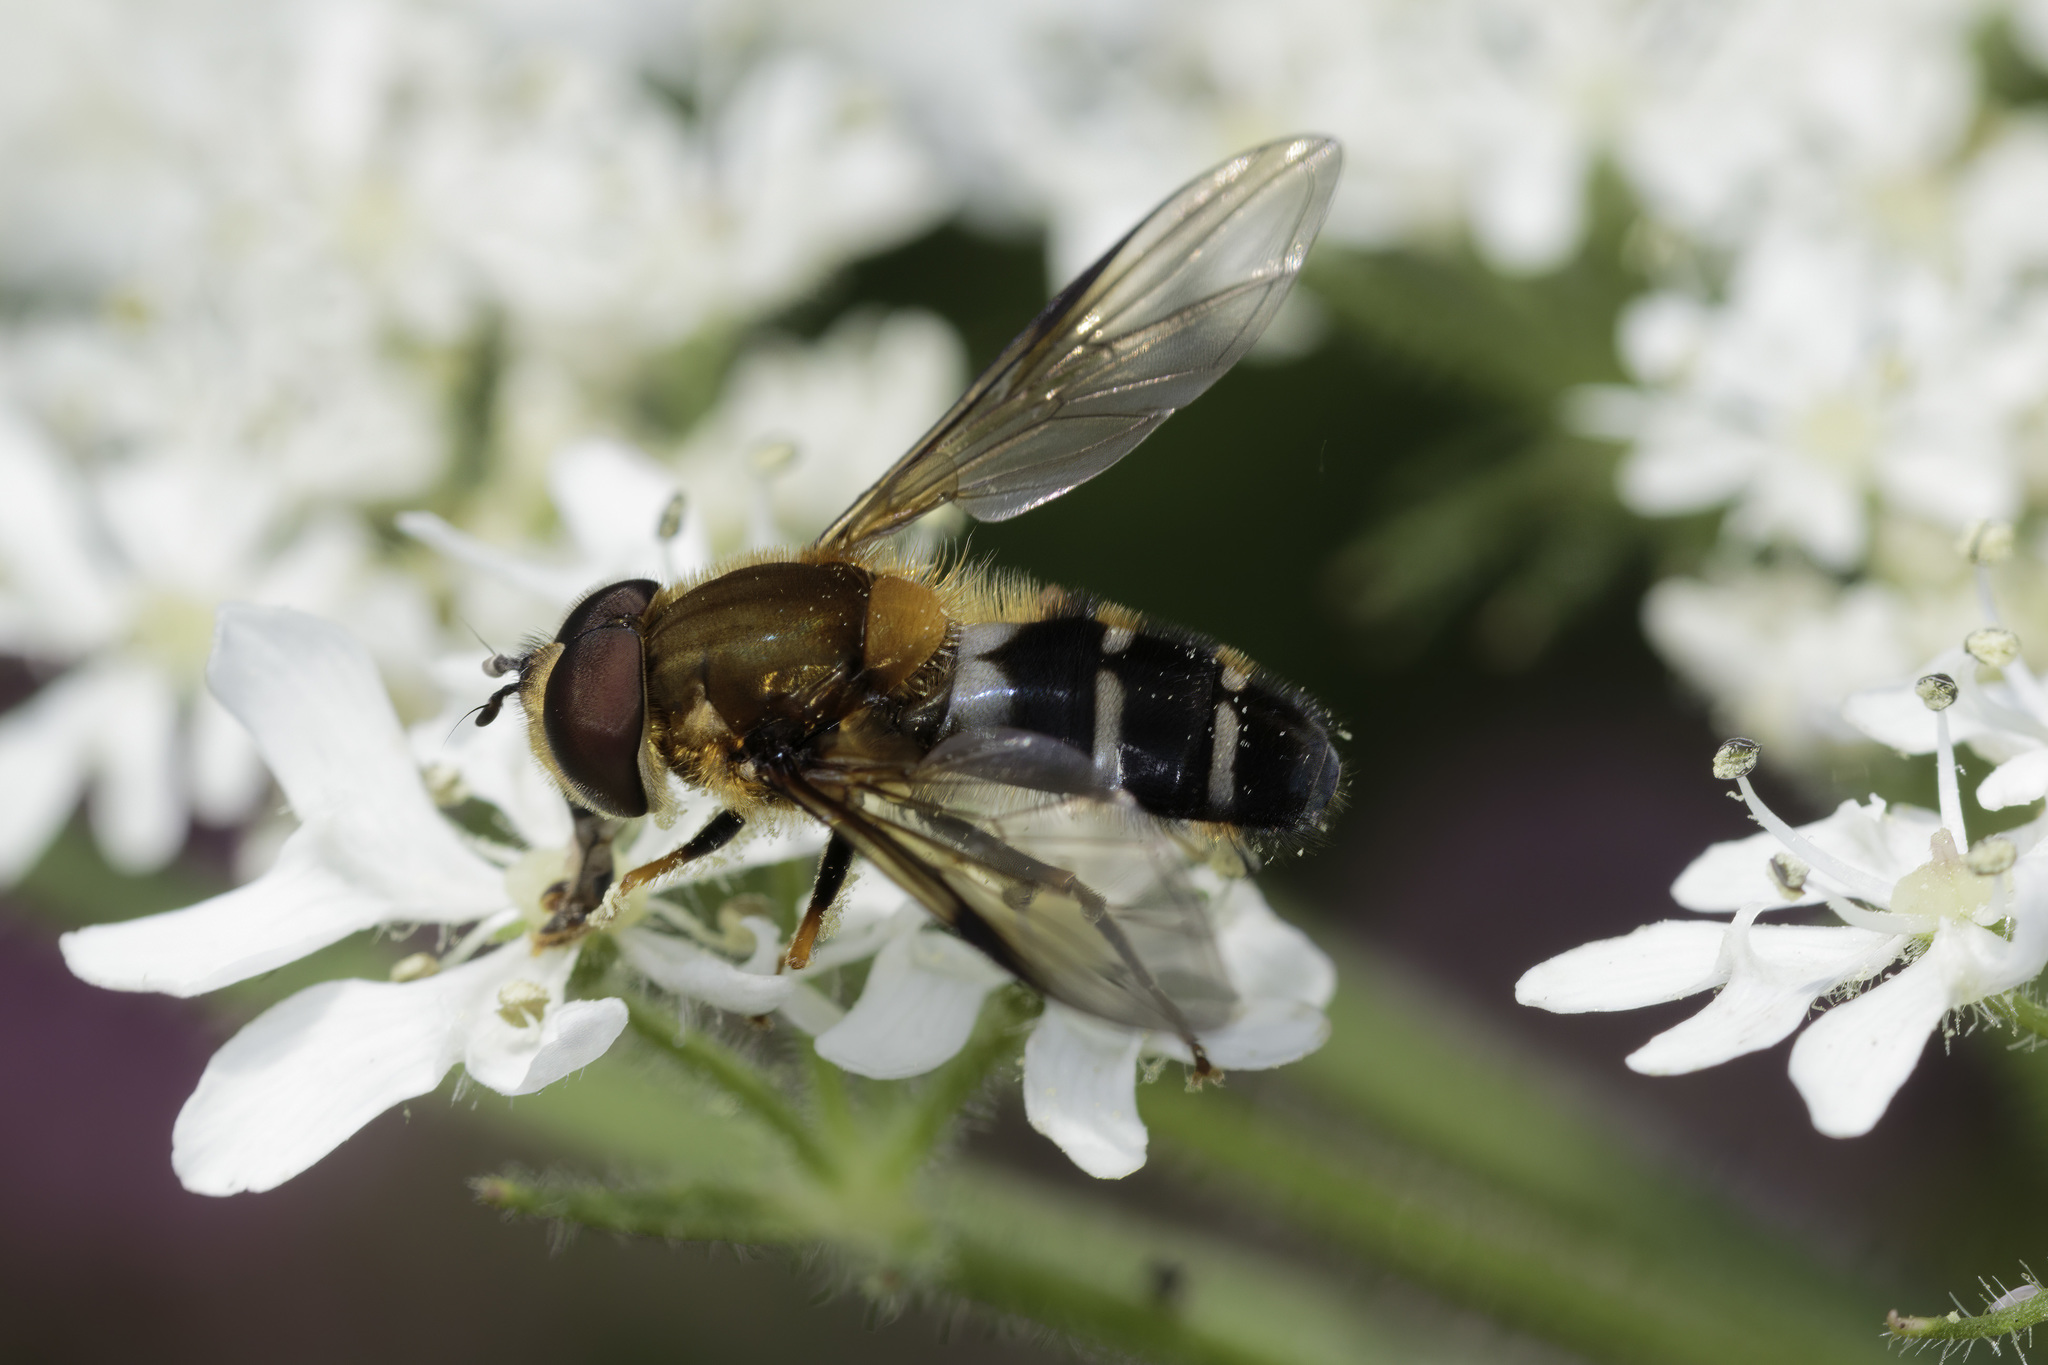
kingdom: Animalia
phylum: Arthropoda
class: Insecta
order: Diptera
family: Syrphidae
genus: Leucozona
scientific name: Leucozona glaucia
